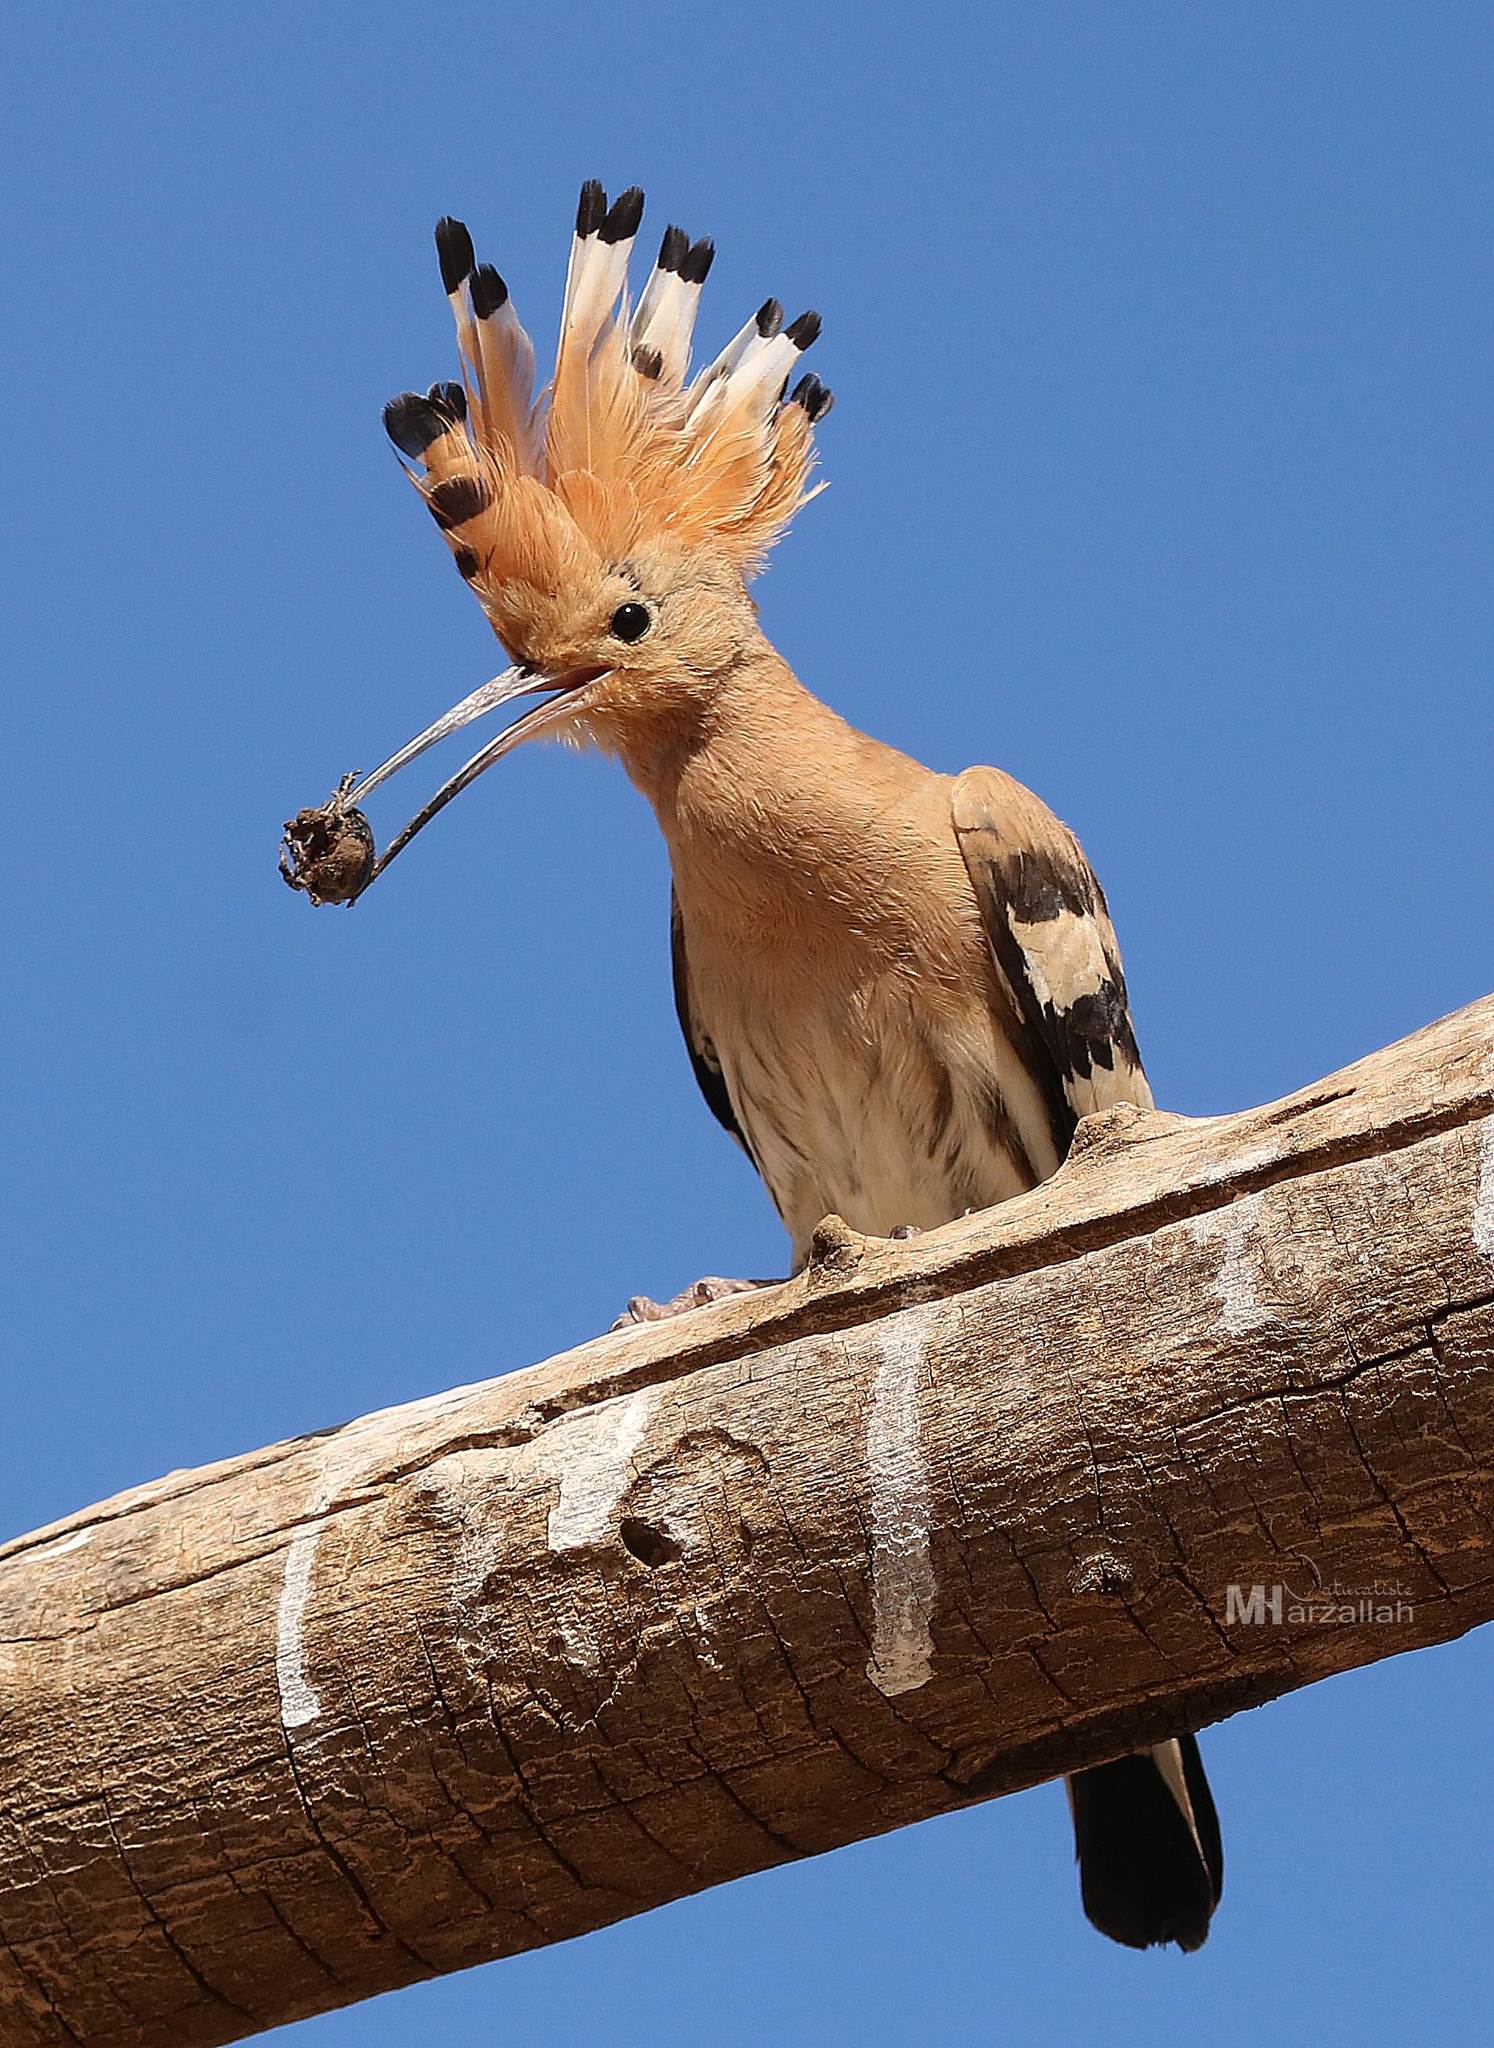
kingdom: Animalia
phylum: Chordata
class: Aves
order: Bucerotiformes
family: Upupidae
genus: Upupa
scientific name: Upupa epops
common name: Eurasian hoopoe
